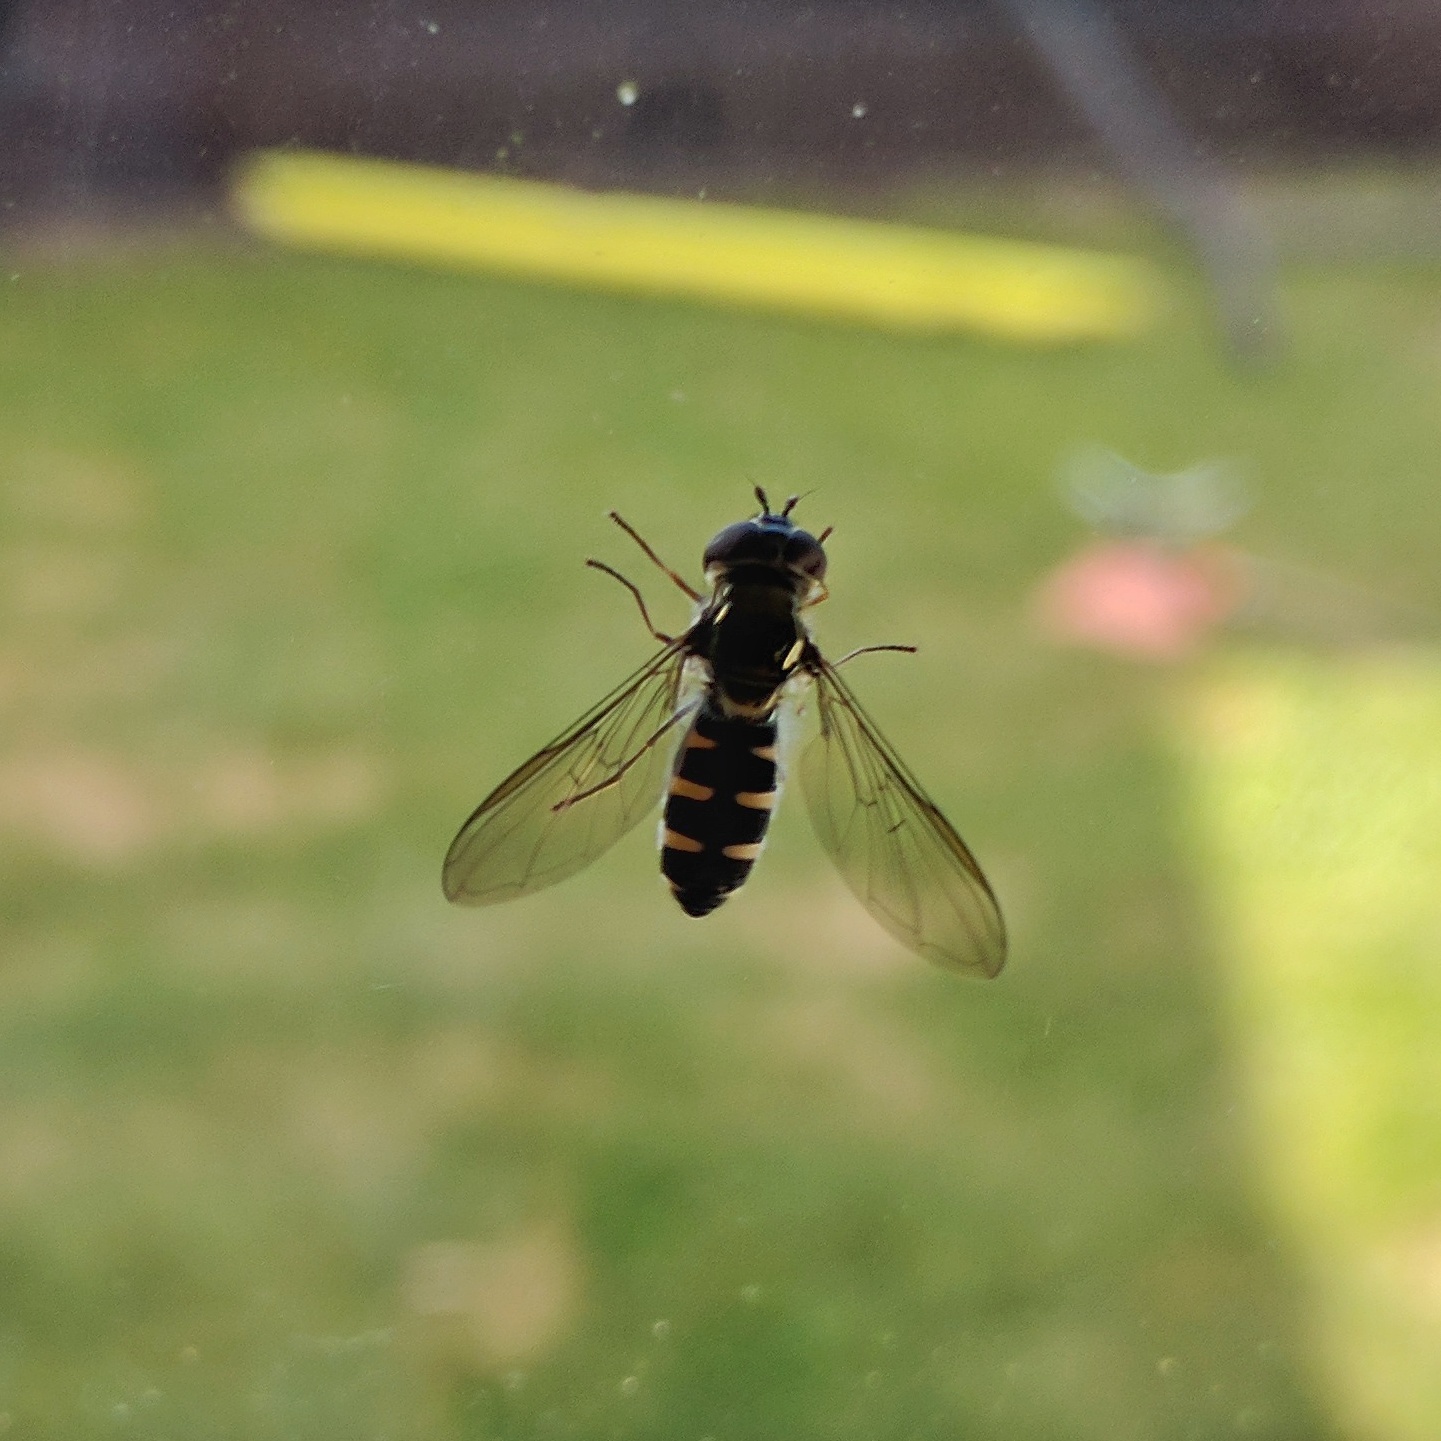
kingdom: Animalia
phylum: Arthropoda
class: Insecta
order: Diptera
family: Syrphidae
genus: Melangyna
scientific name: Melangyna novaezelandiae
